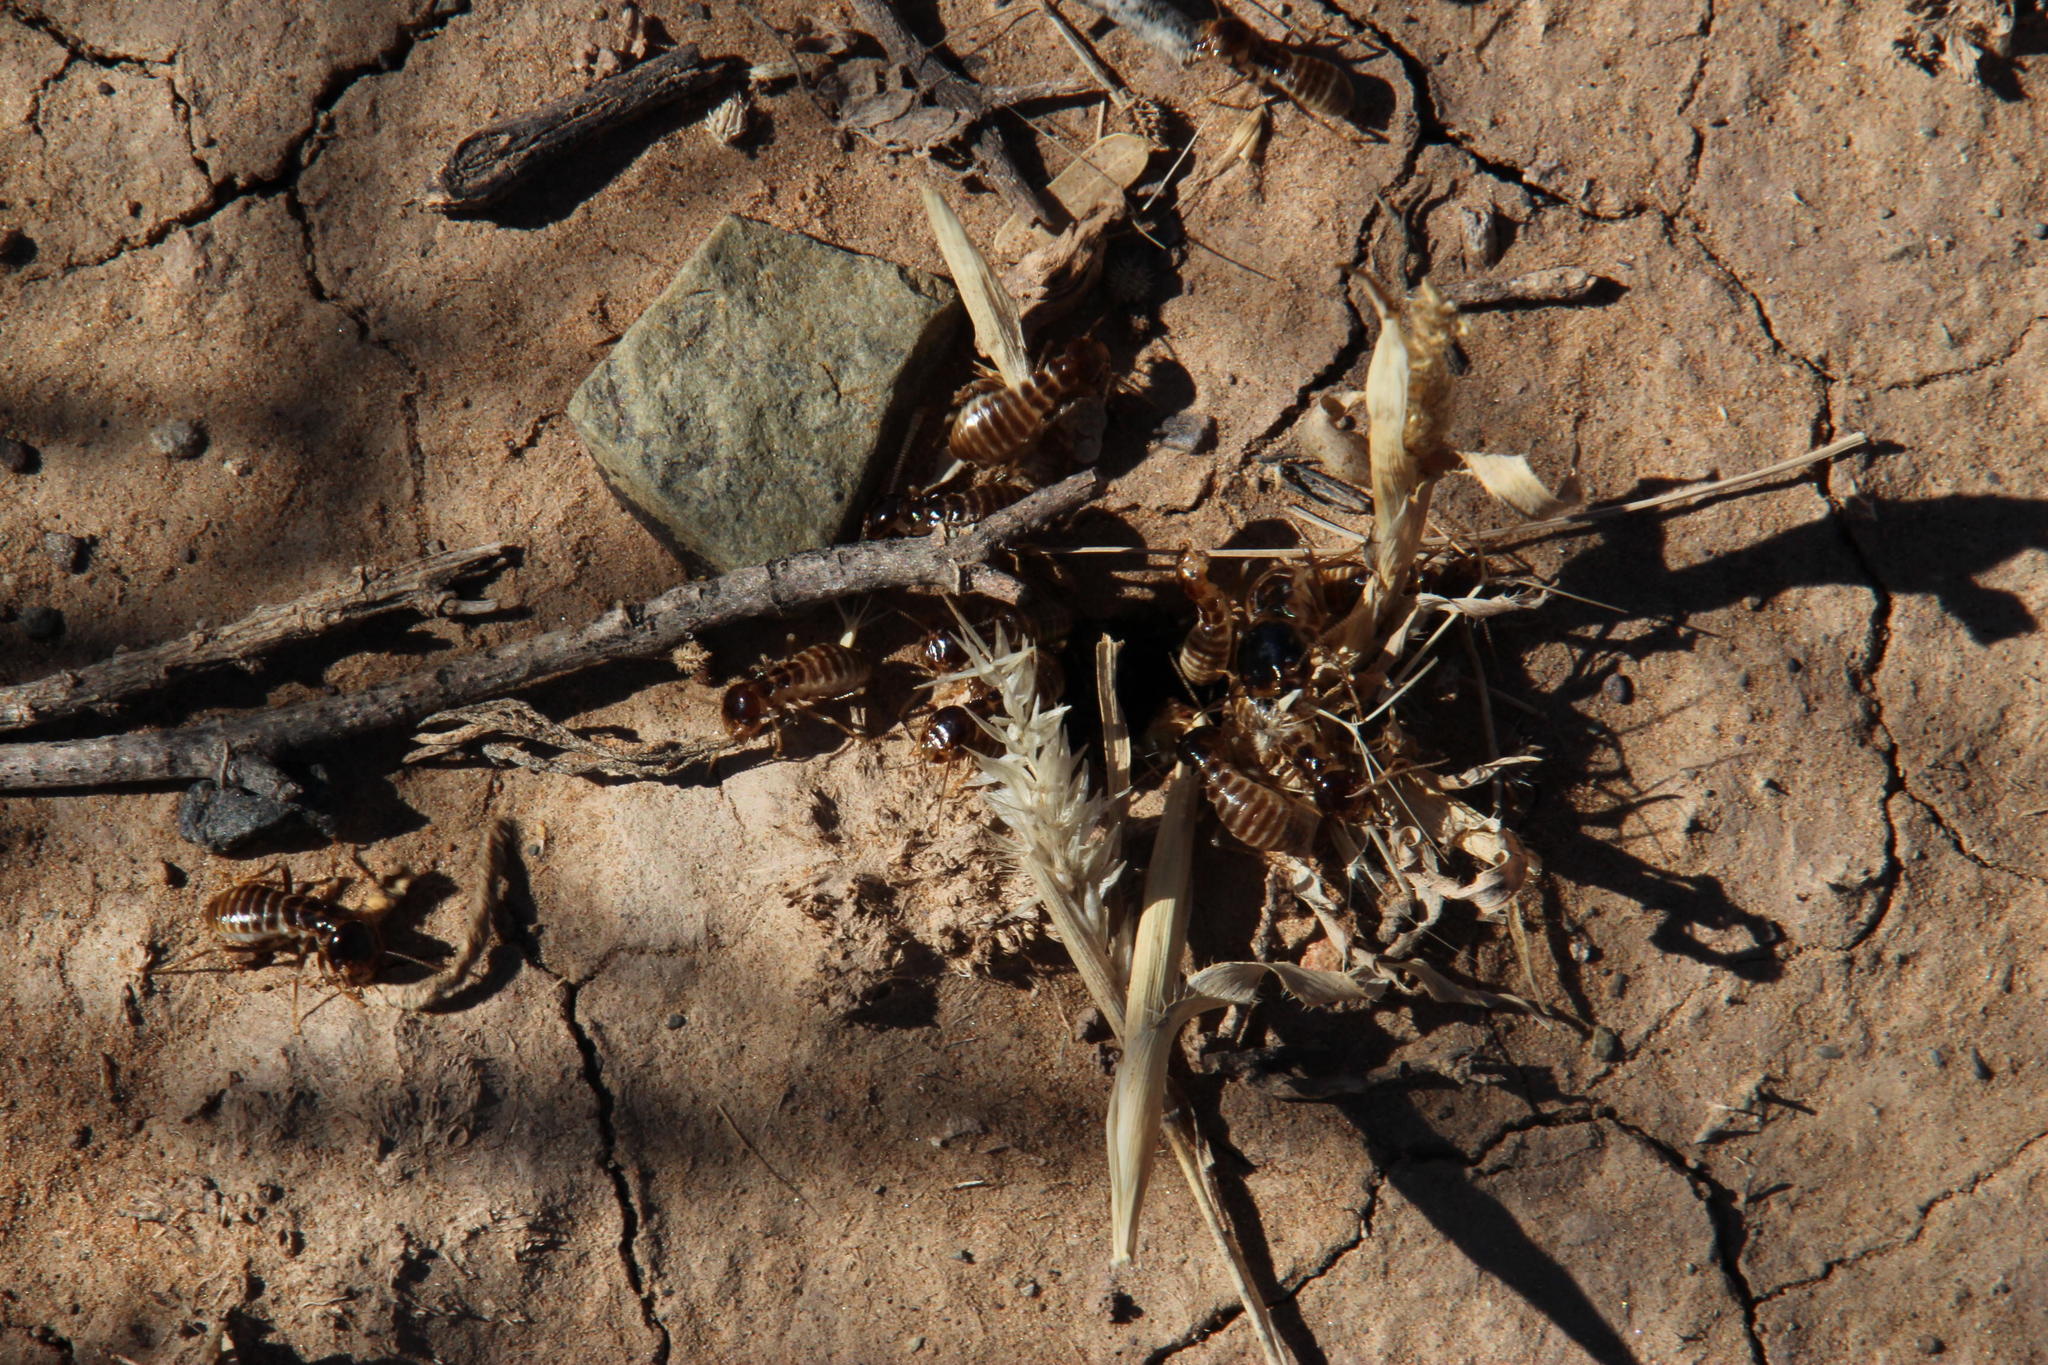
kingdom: Animalia
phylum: Arthropoda
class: Insecta
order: Blattodea
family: Hodotermitidae
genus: Hodotermes
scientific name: Hodotermes mossambicus
